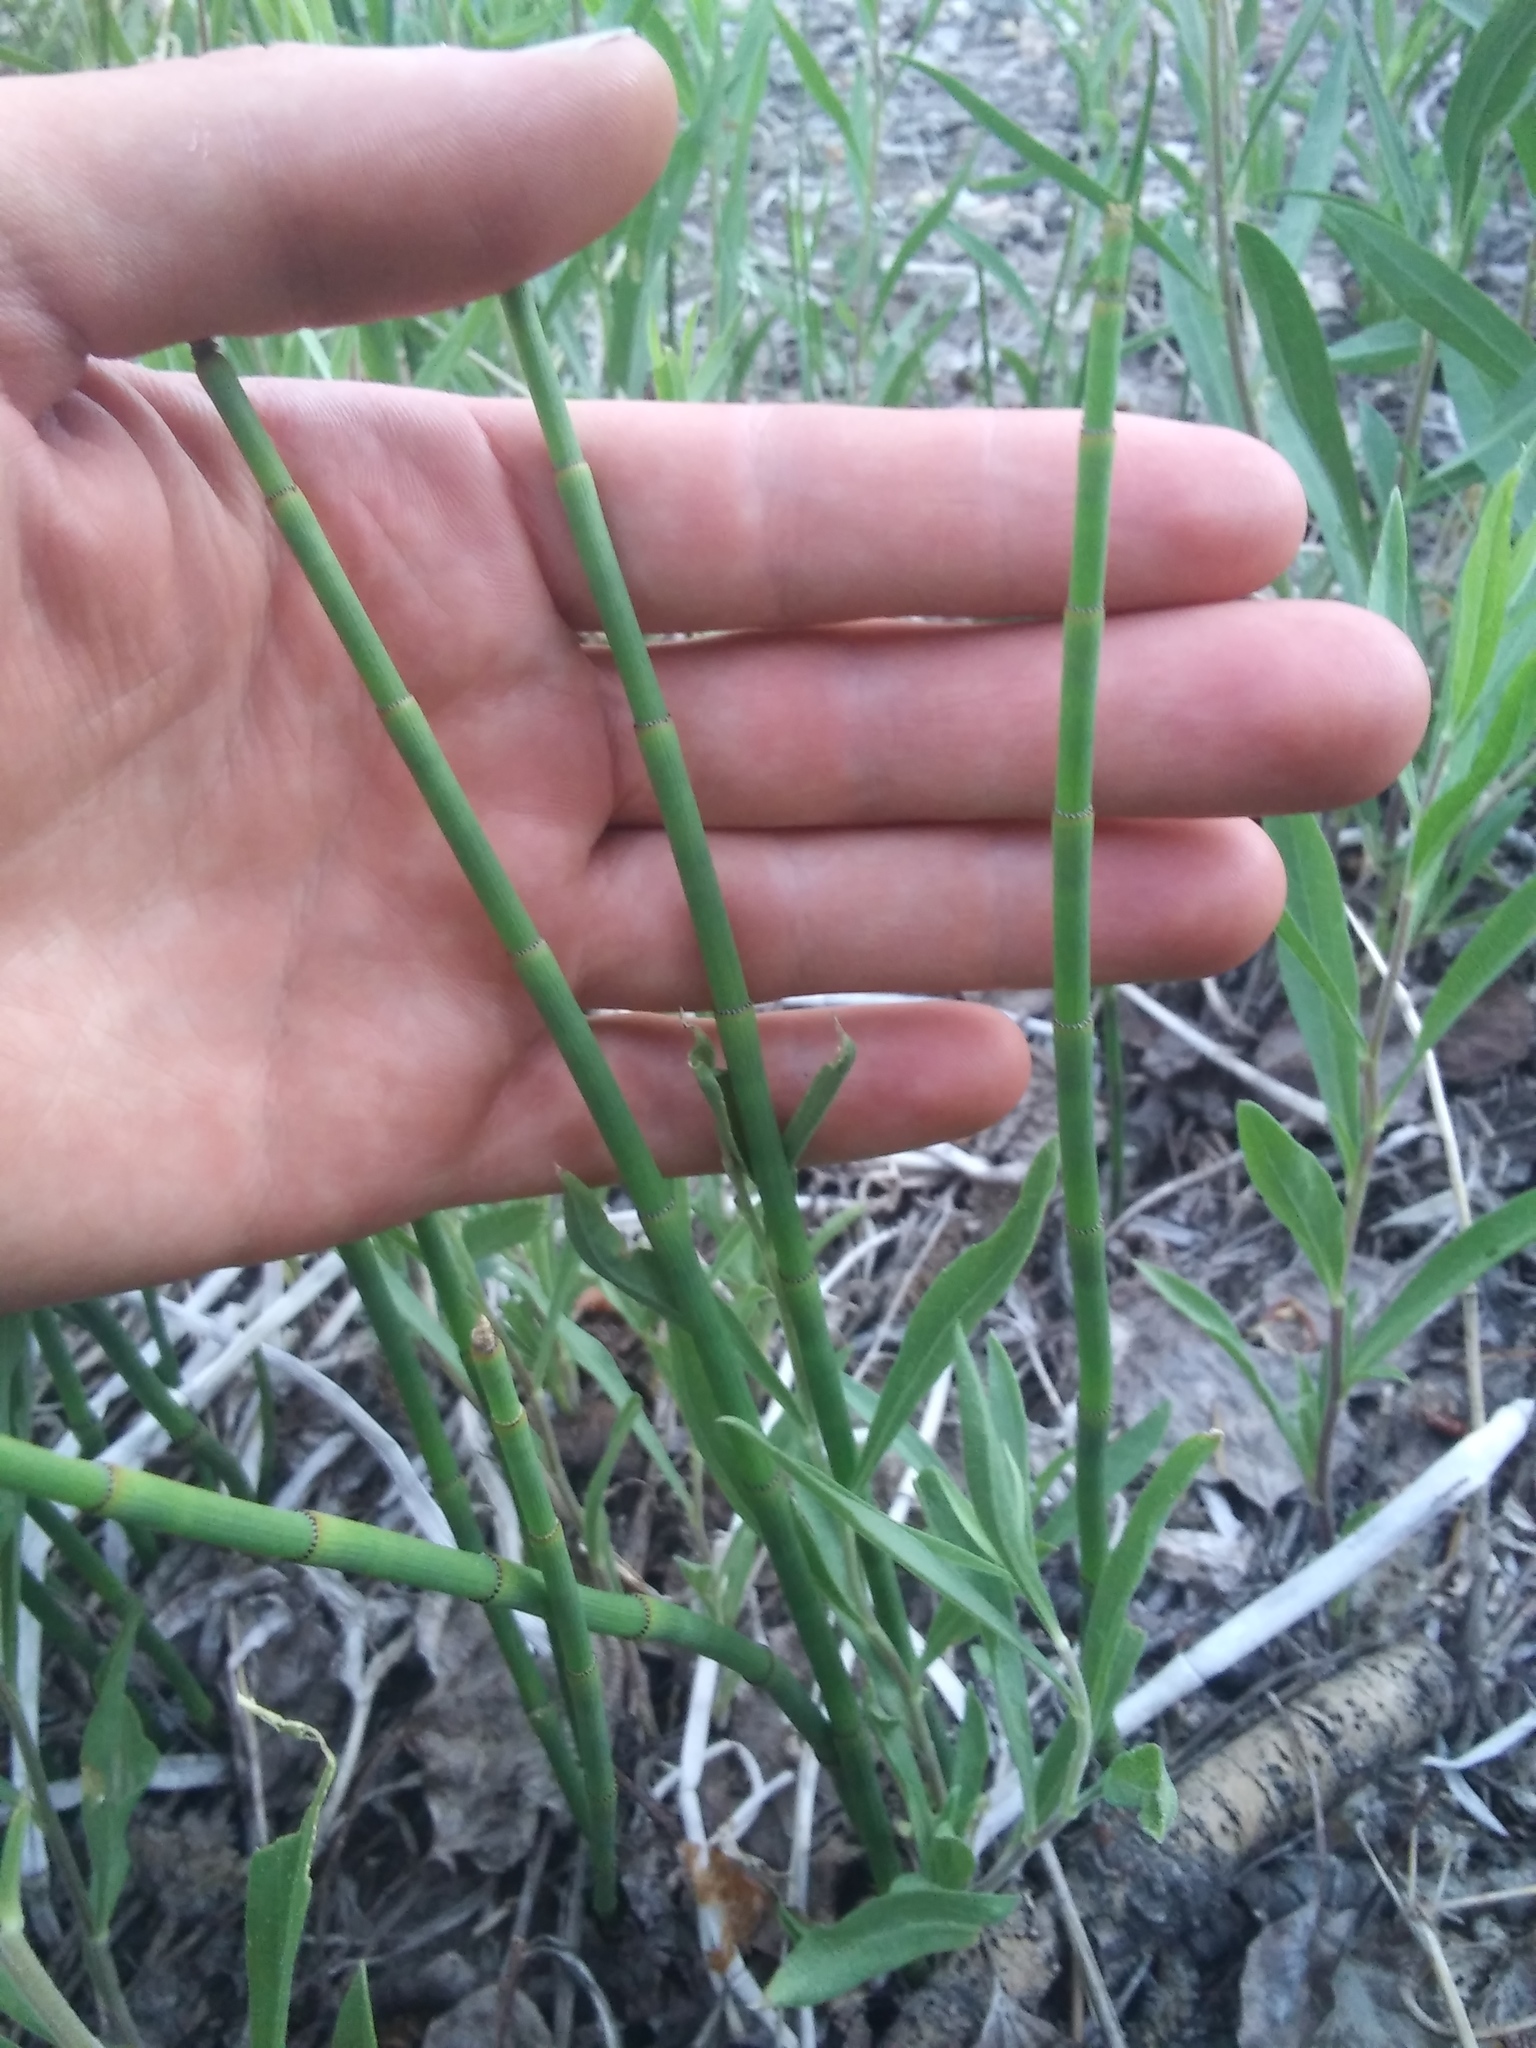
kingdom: Plantae
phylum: Tracheophyta
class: Polypodiopsida
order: Equisetales
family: Equisetaceae
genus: Equisetum
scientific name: Equisetum laevigatum
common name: Smooth scouring-rush
